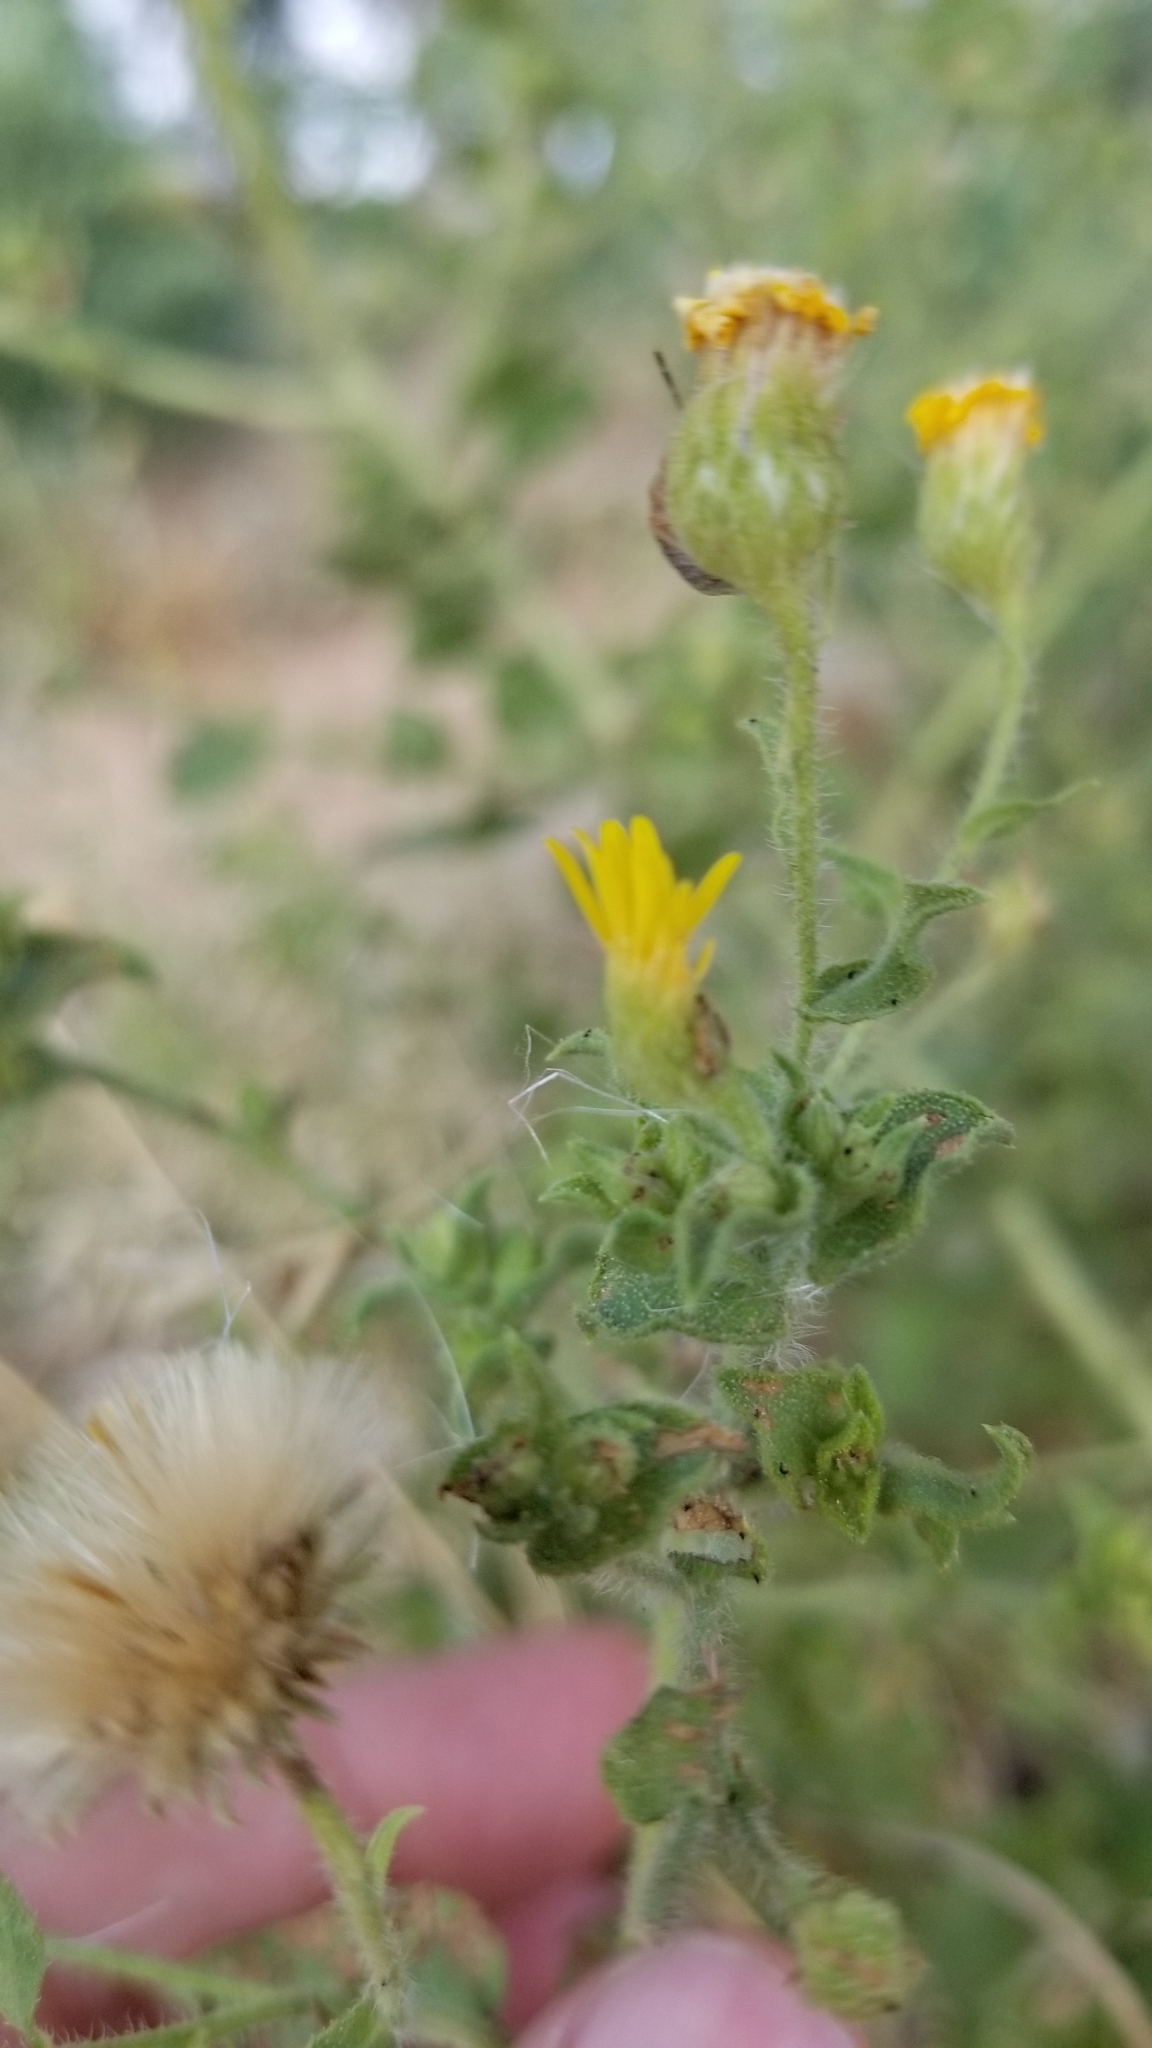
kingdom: Plantae
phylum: Tracheophyta
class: Magnoliopsida
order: Asterales
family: Asteraceae
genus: Heterotheca
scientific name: Heterotheca subaxillaris
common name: Camphorweed
